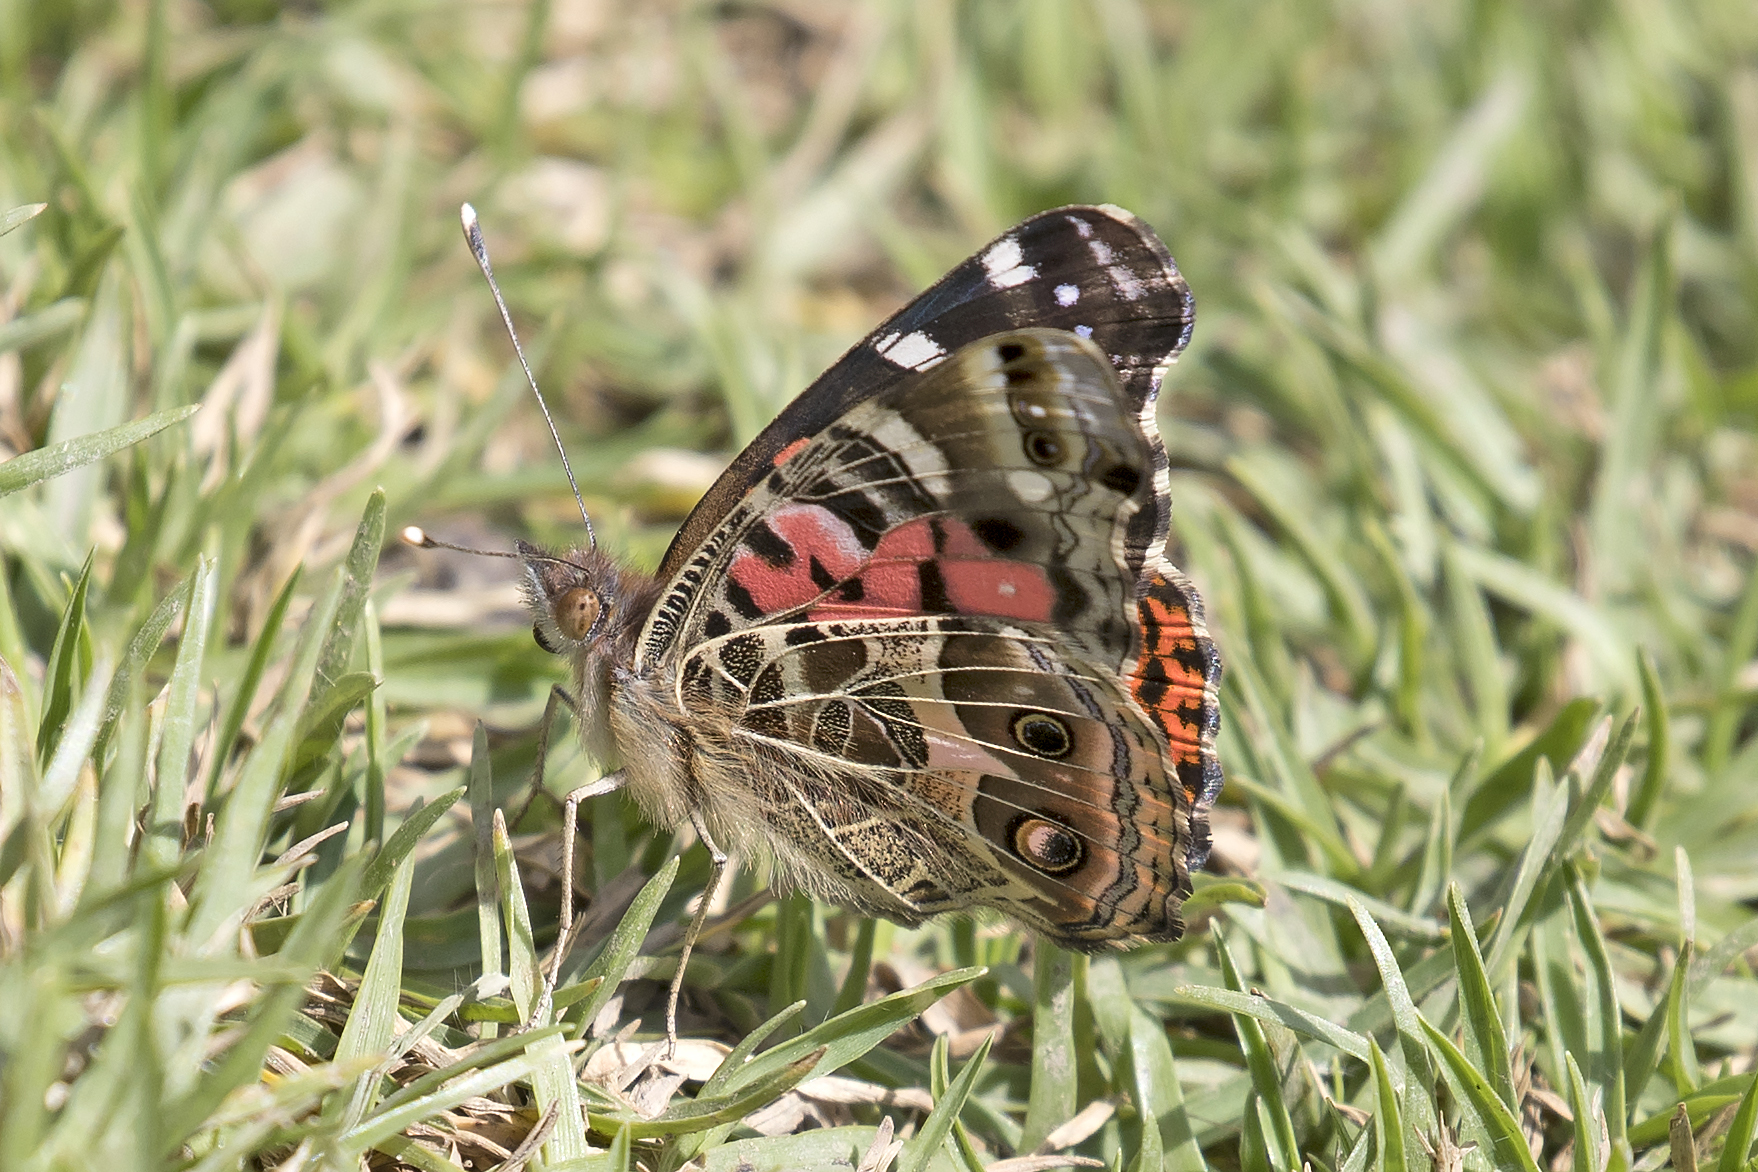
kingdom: Animalia
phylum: Arthropoda
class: Insecta
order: Lepidoptera
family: Nymphalidae
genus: Vanessa
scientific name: Vanessa braziliensis
